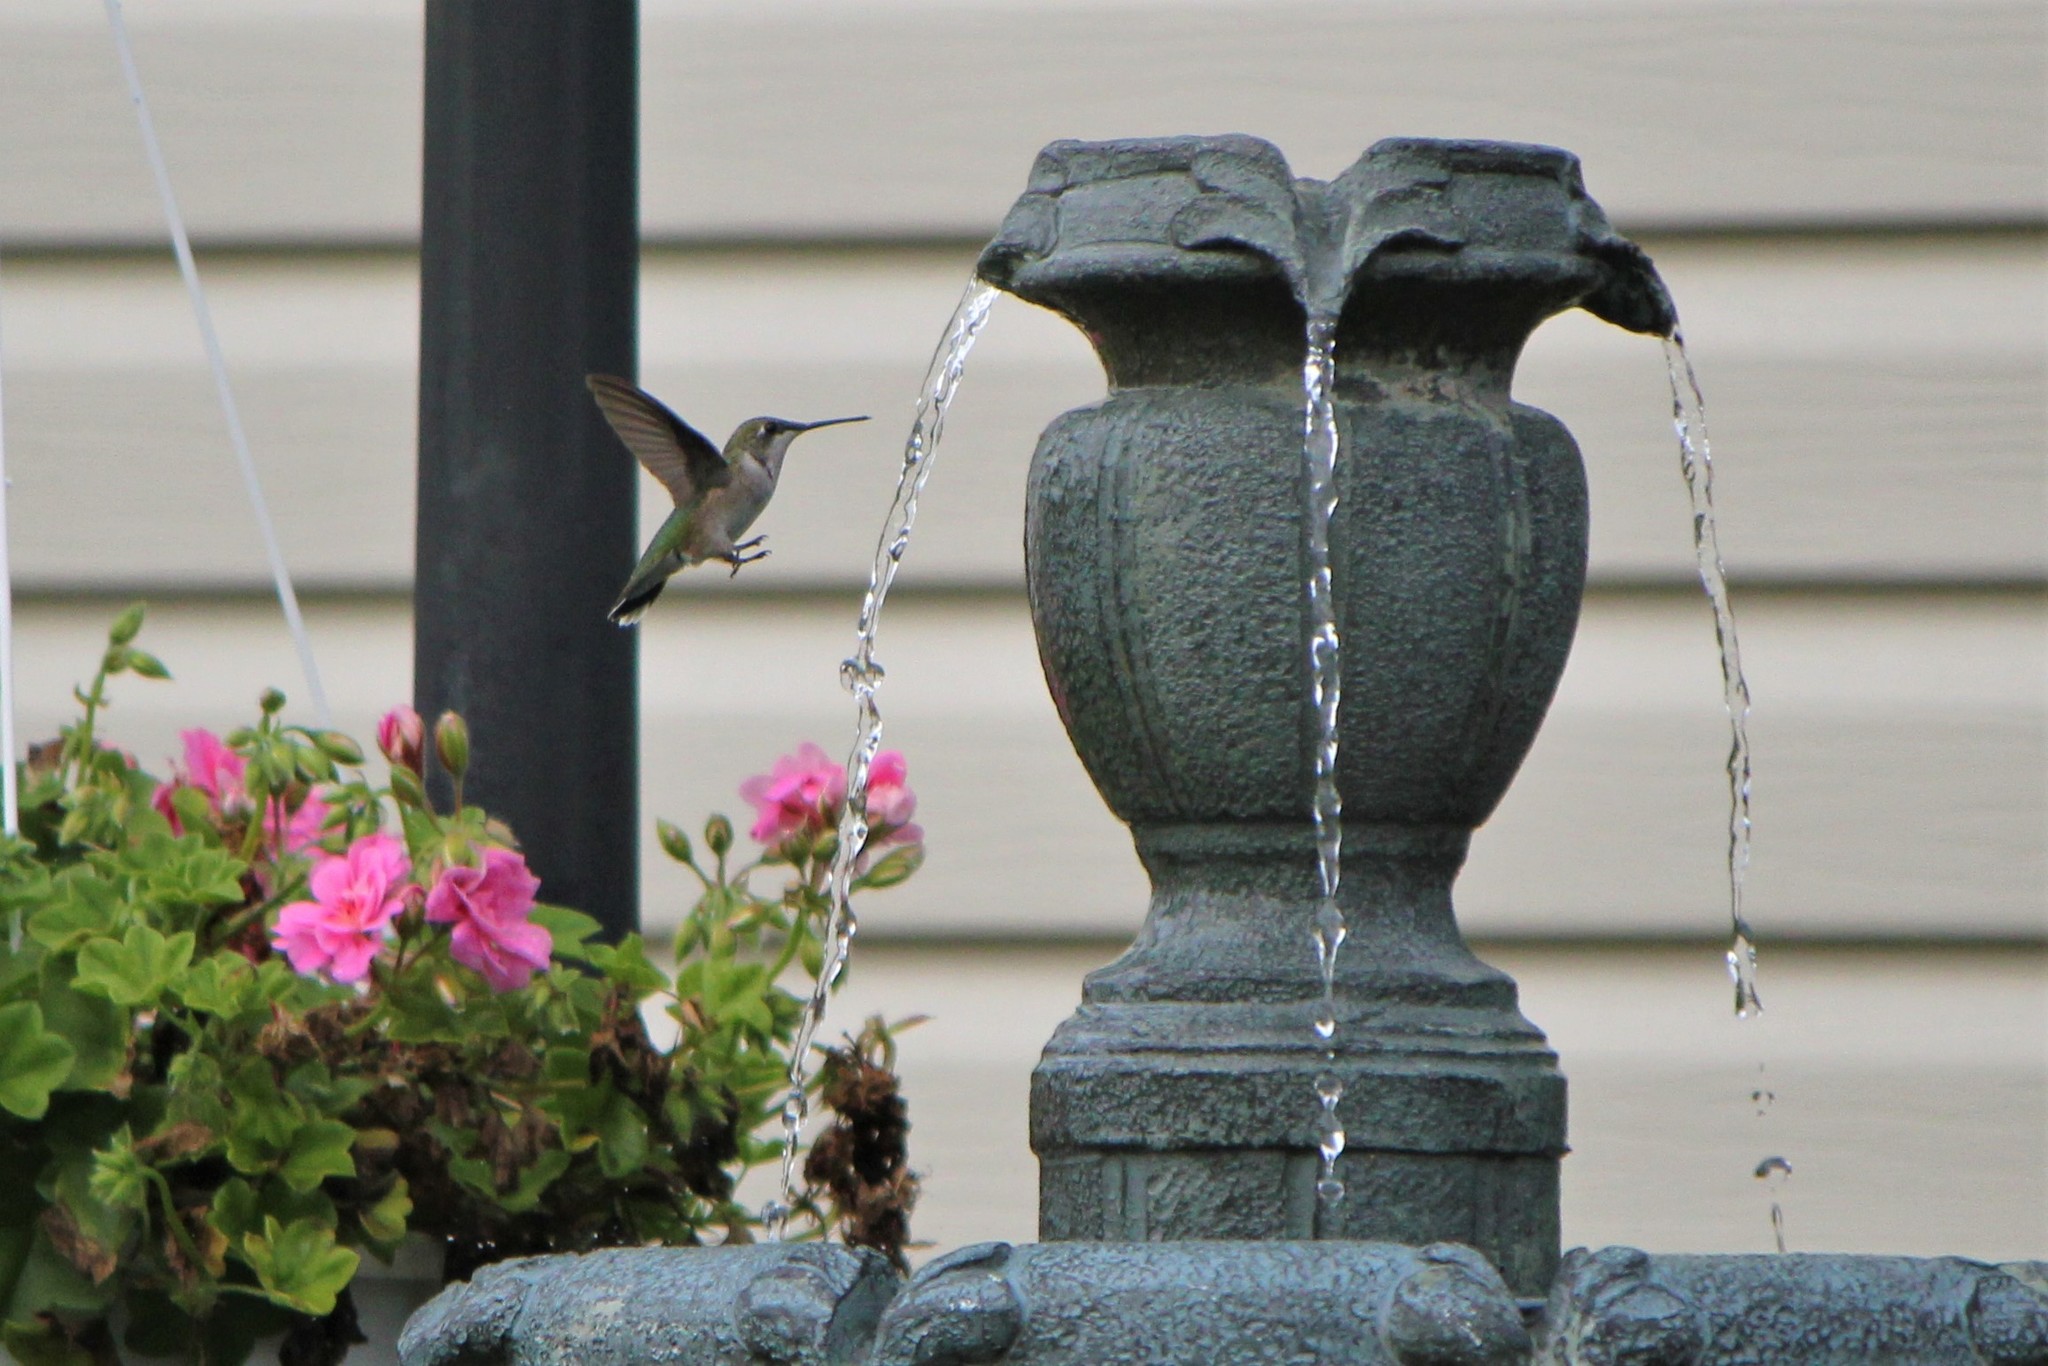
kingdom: Animalia
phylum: Chordata
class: Aves
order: Apodiformes
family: Trochilidae
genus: Archilochus
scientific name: Archilochus colubris
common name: Ruby-throated hummingbird
